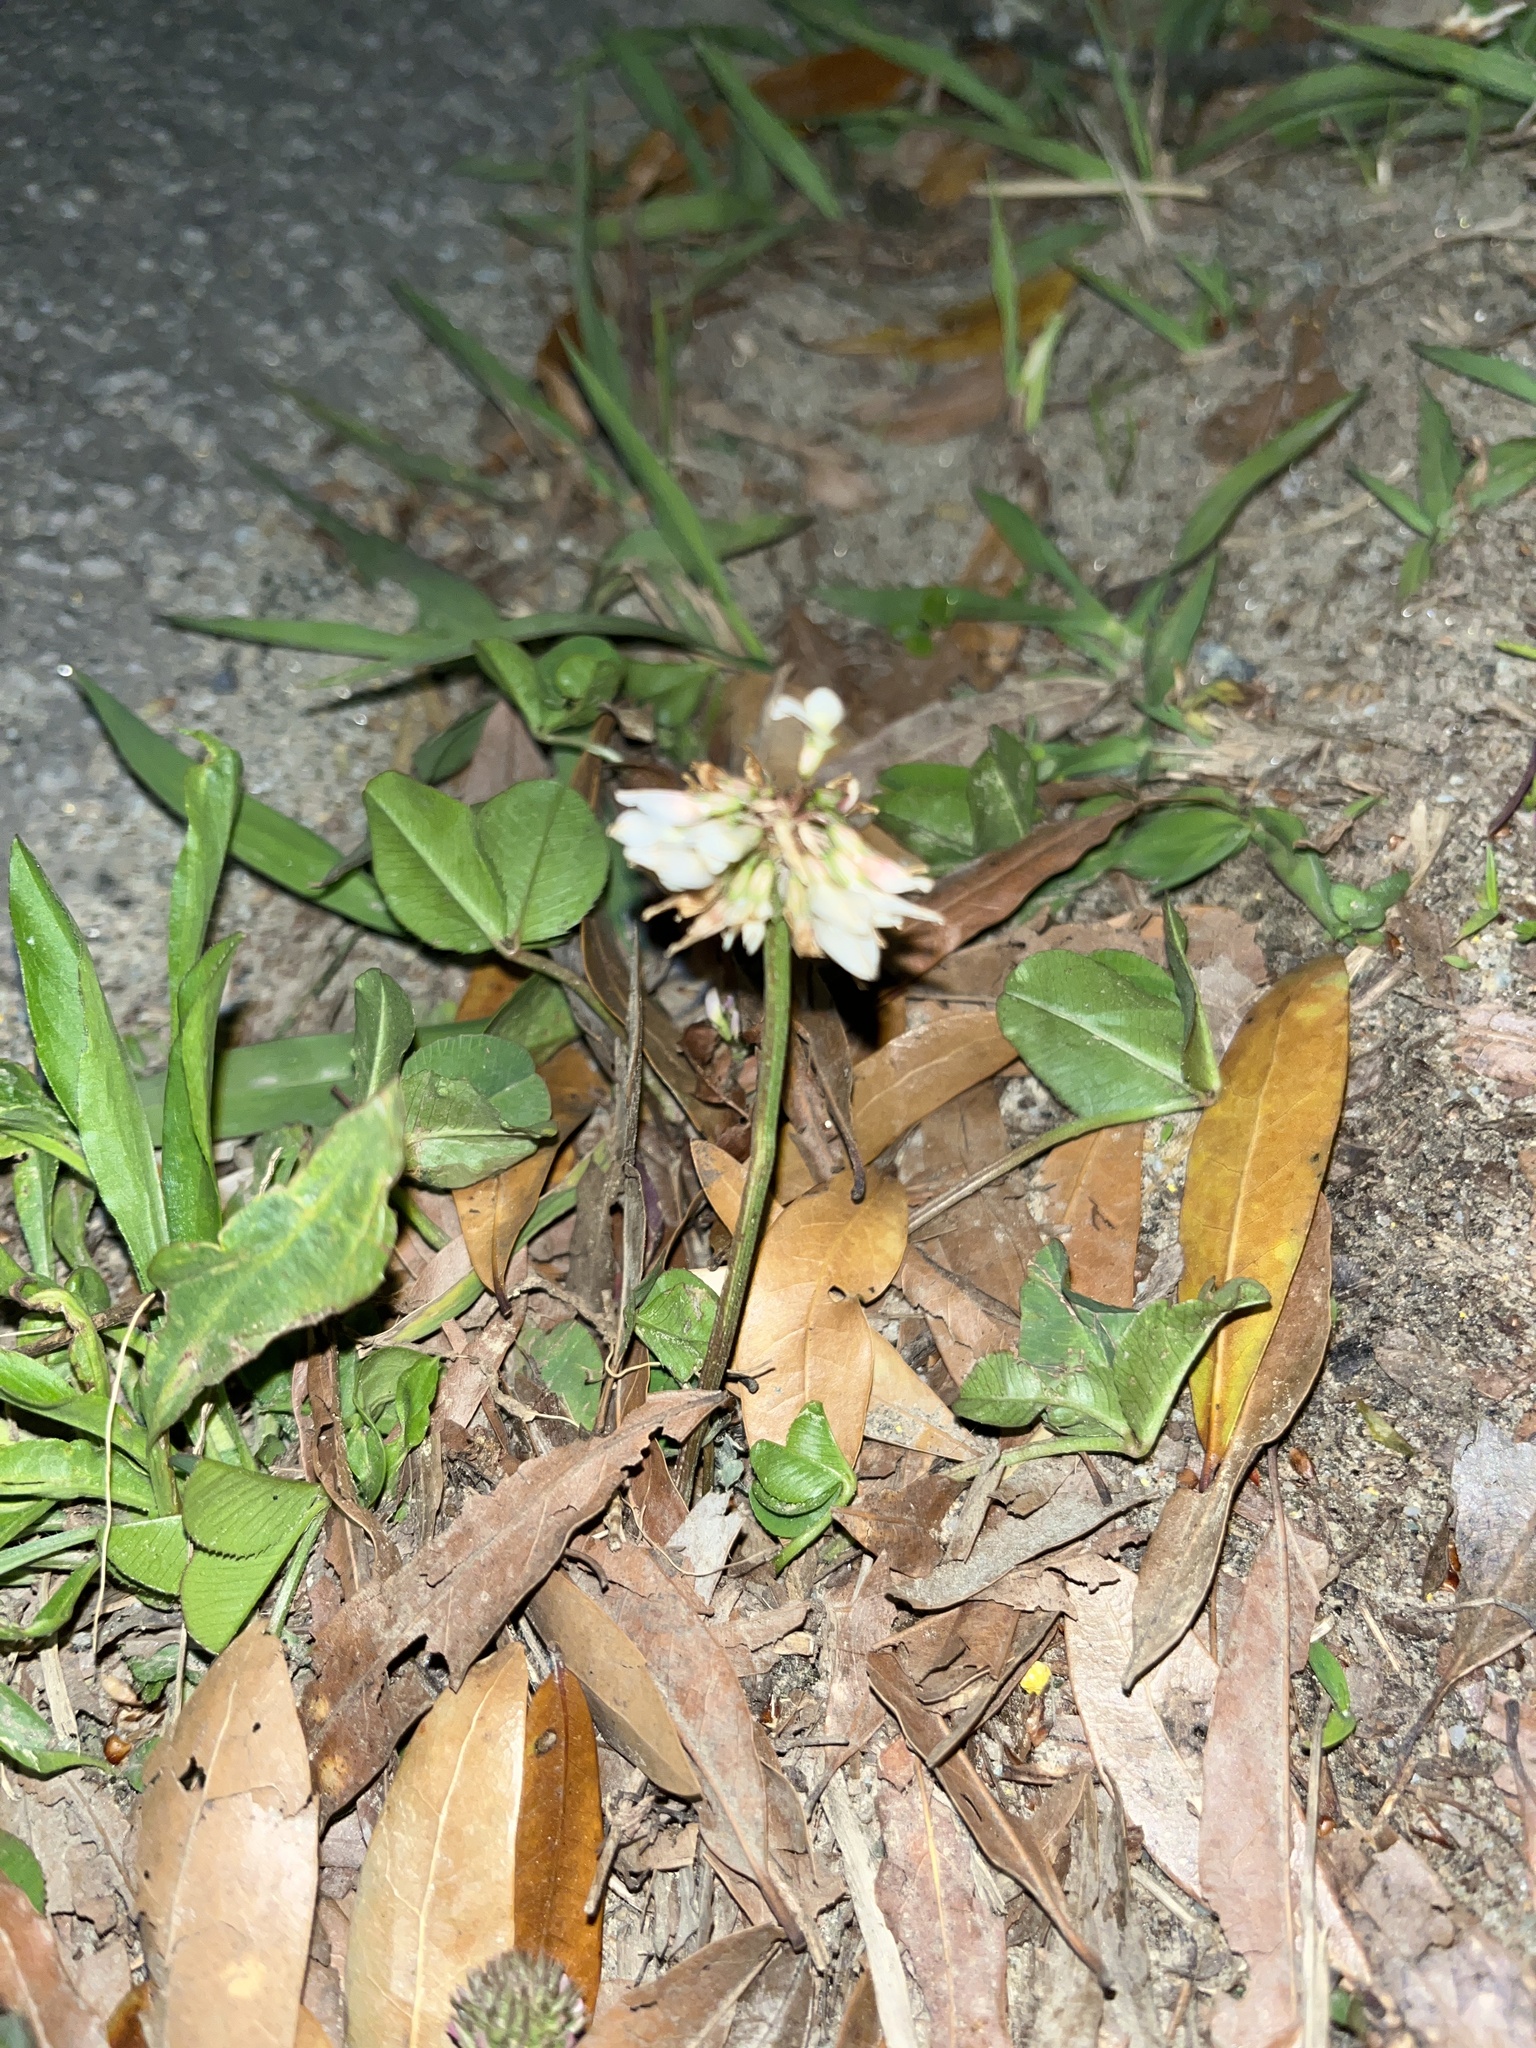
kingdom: Plantae
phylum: Tracheophyta
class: Magnoliopsida
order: Fabales
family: Fabaceae
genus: Trifolium
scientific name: Trifolium repens
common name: White clover
